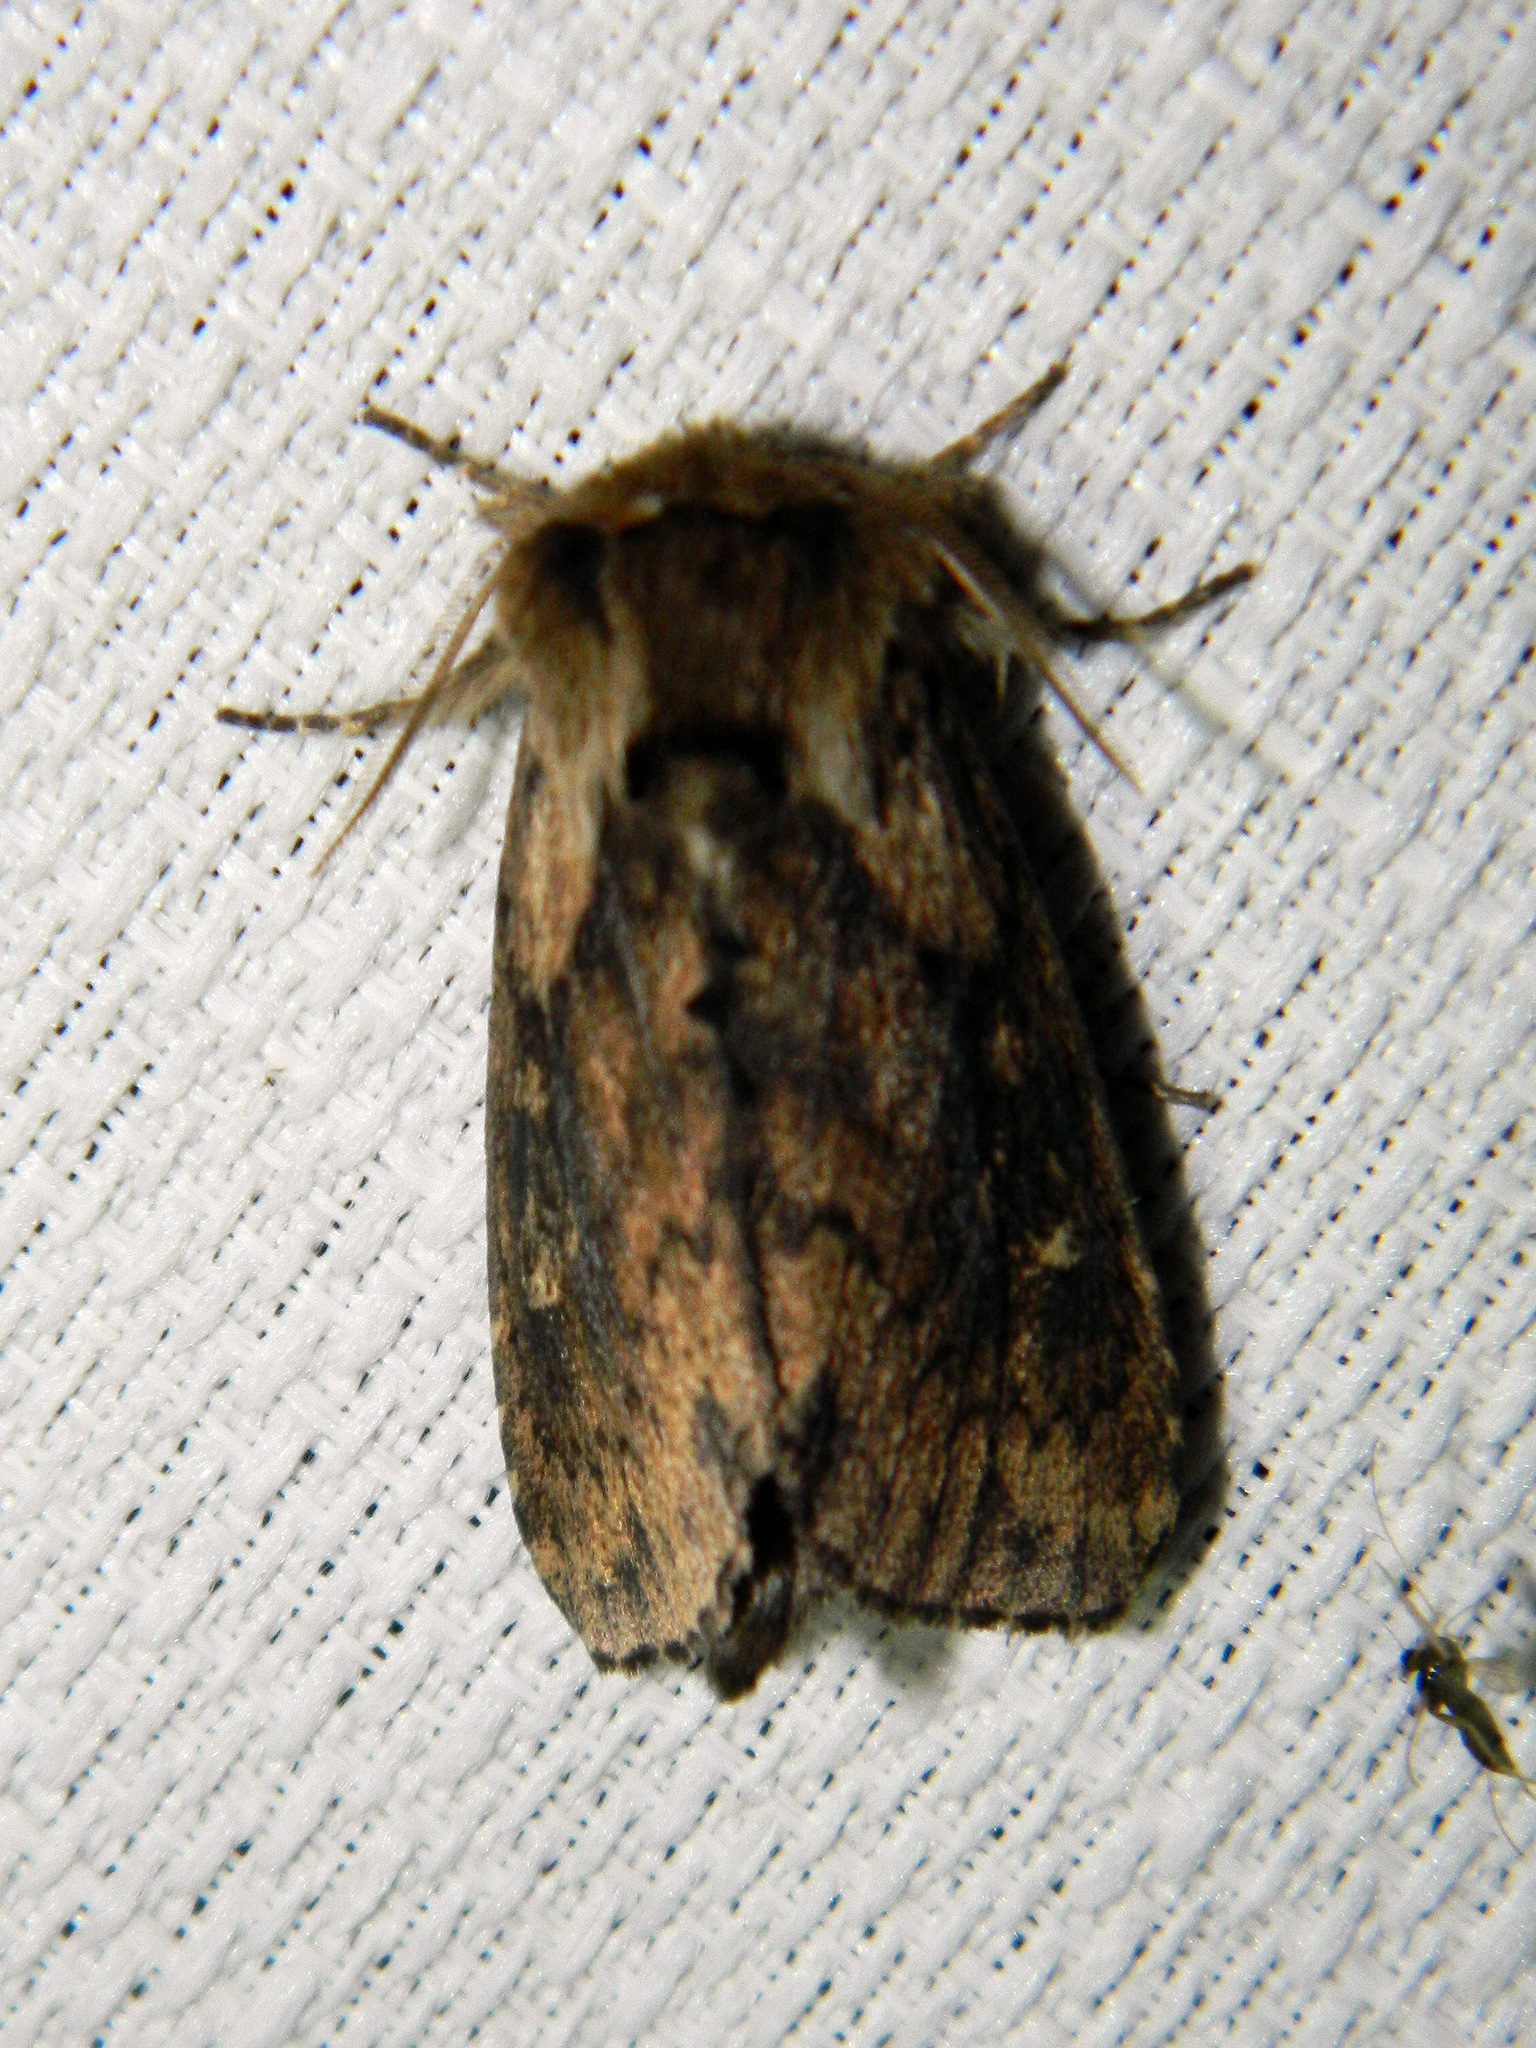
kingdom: Animalia
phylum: Arthropoda
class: Insecta
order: Lepidoptera
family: Noctuidae
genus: Bellura
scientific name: Bellura vulnifica
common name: Black-tailed diver moth
